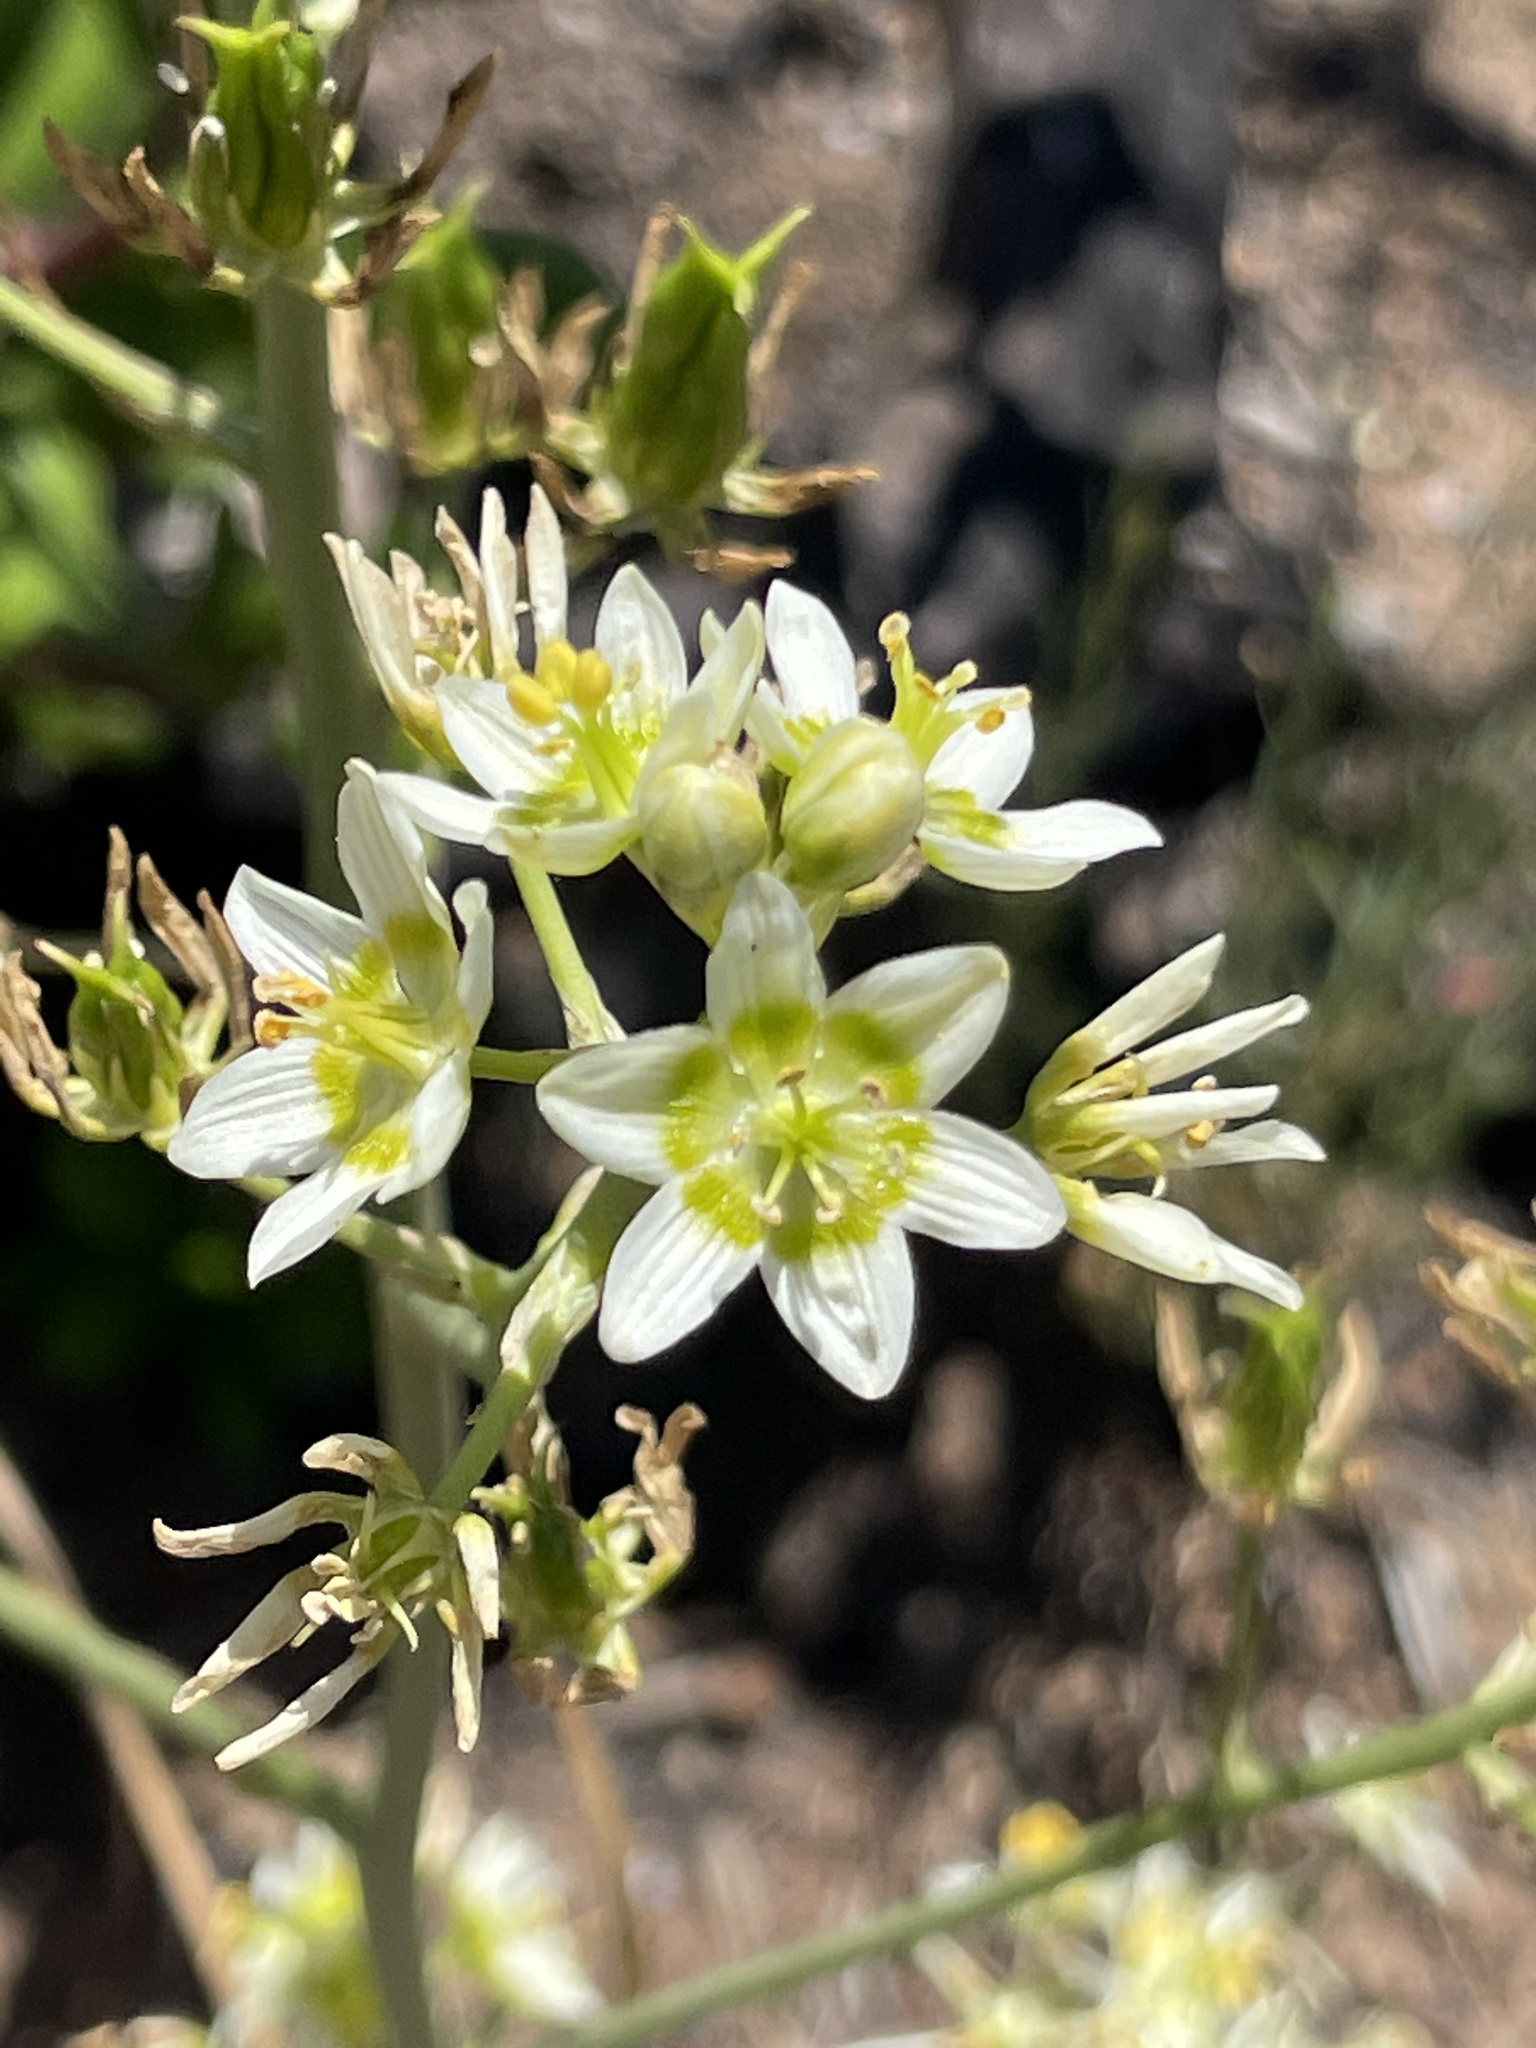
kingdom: Plantae
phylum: Tracheophyta
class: Liliopsida
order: Liliales
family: Melanthiaceae
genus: Toxicoscordion
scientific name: Toxicoscordion fremontii
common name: Fremont's death camas
